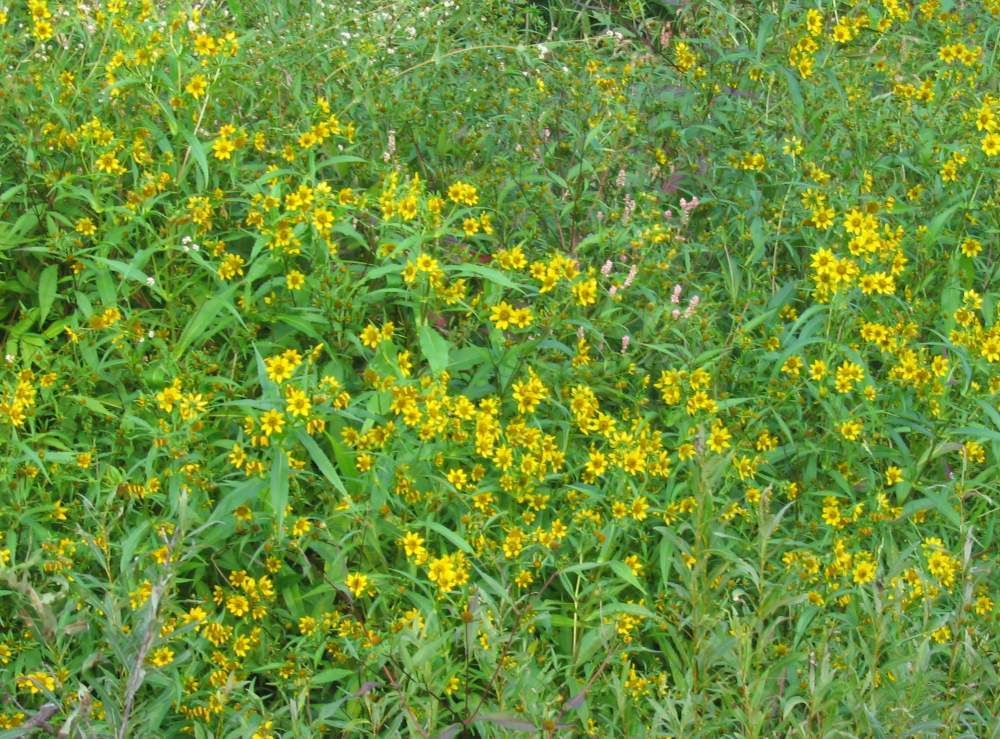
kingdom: Plantae
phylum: Tracheophyta
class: Magnoliopsida
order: Asterales
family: Asteraceae
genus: Bidens
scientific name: Bidens cernua
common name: Nodding bur-marigold
